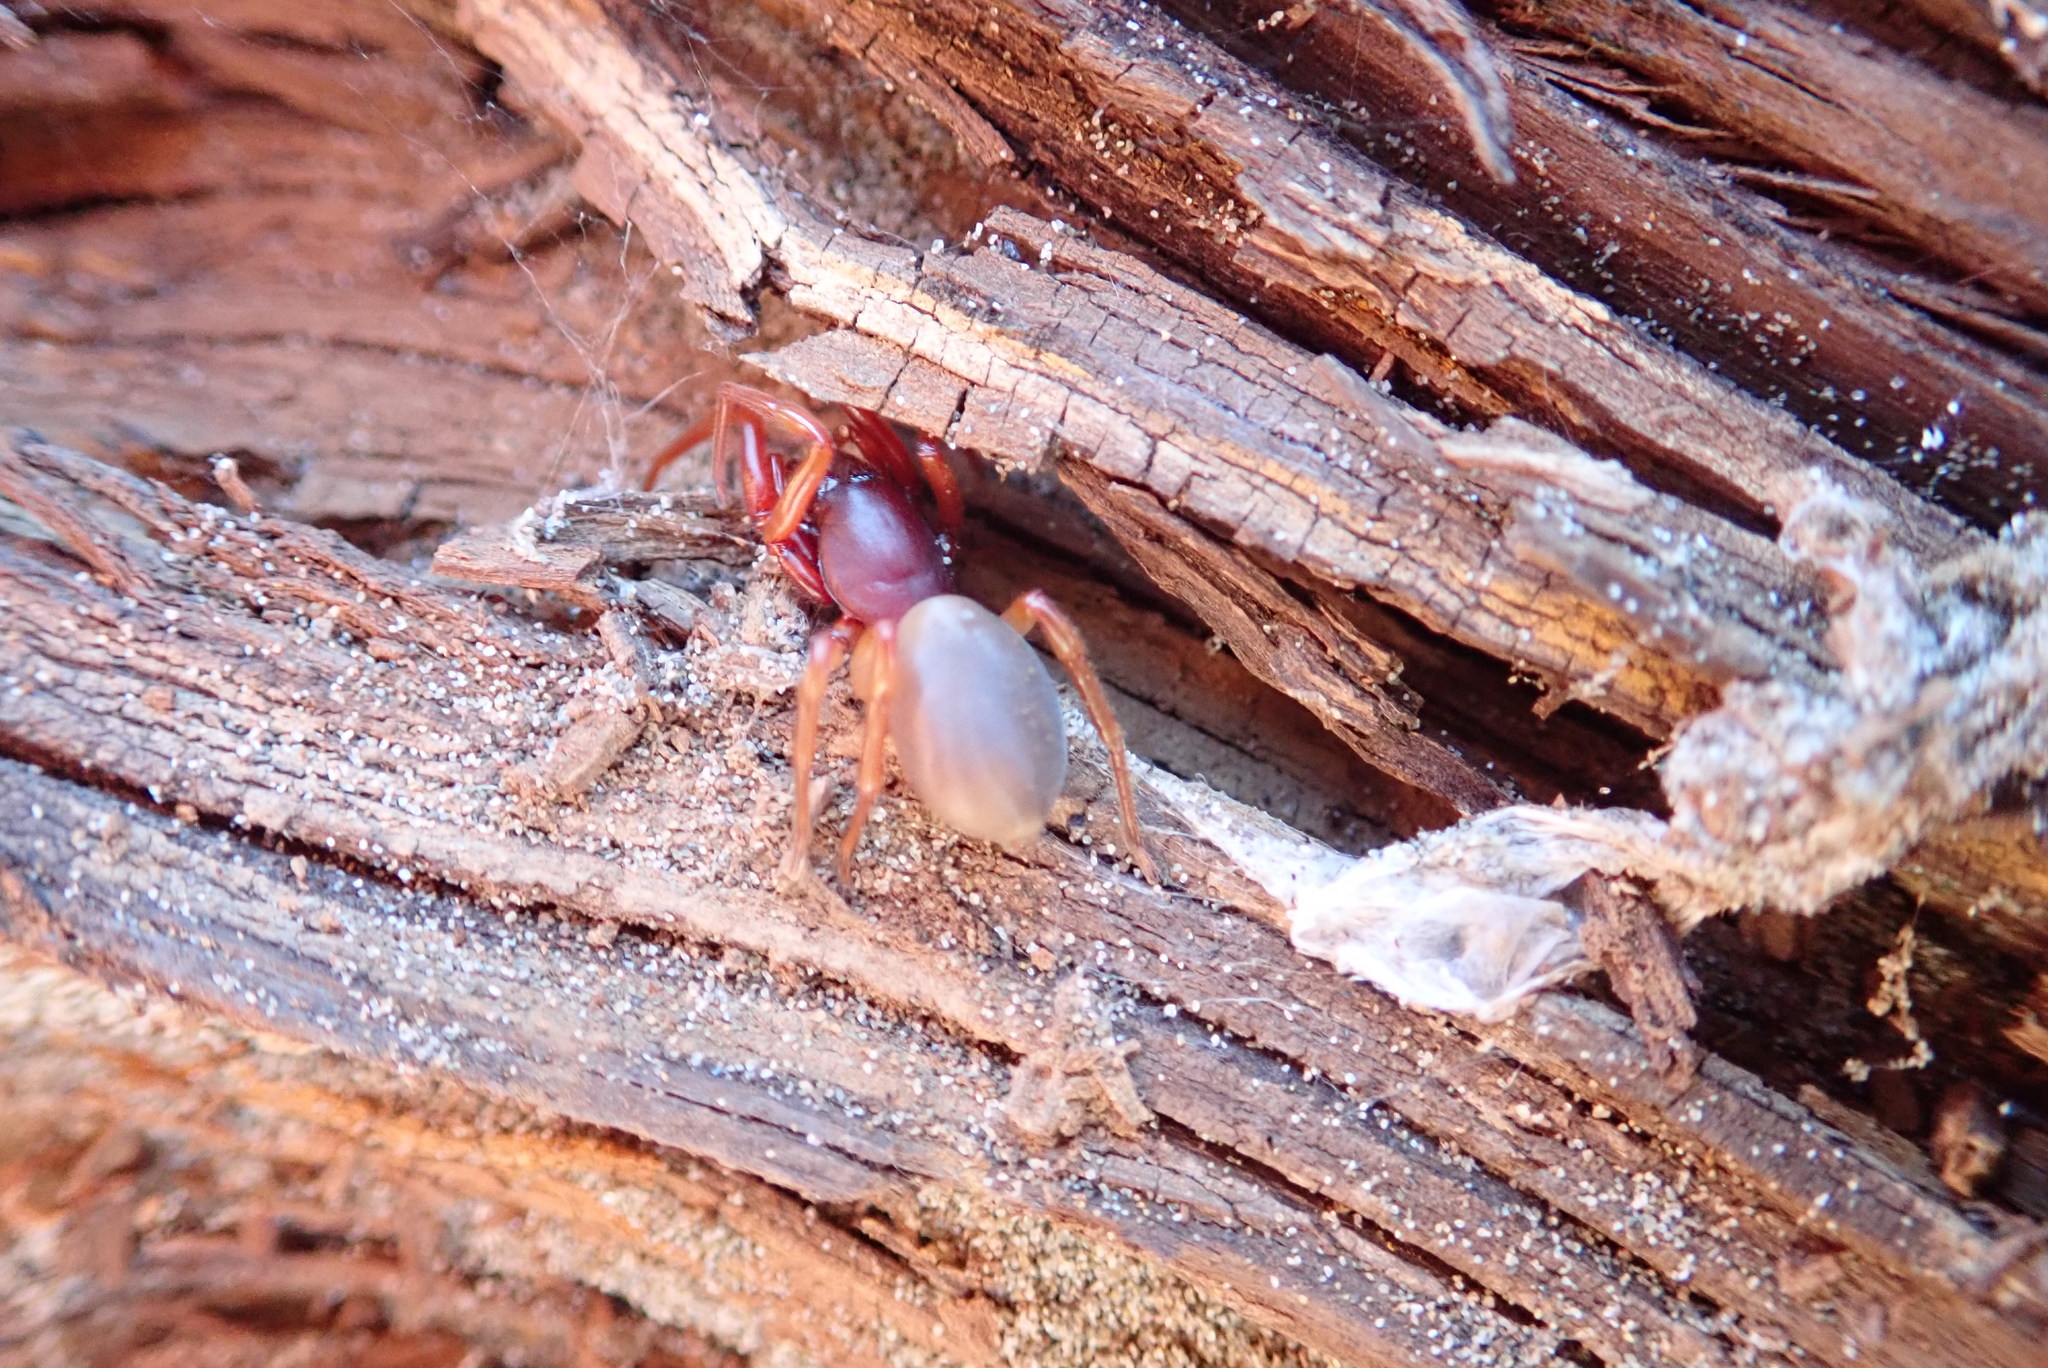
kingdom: Animalia
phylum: Arthropoda
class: Arachnida
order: Araneae
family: Dysderidae
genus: Dysdera
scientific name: Dysdera crocata
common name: Woodlouse spider
